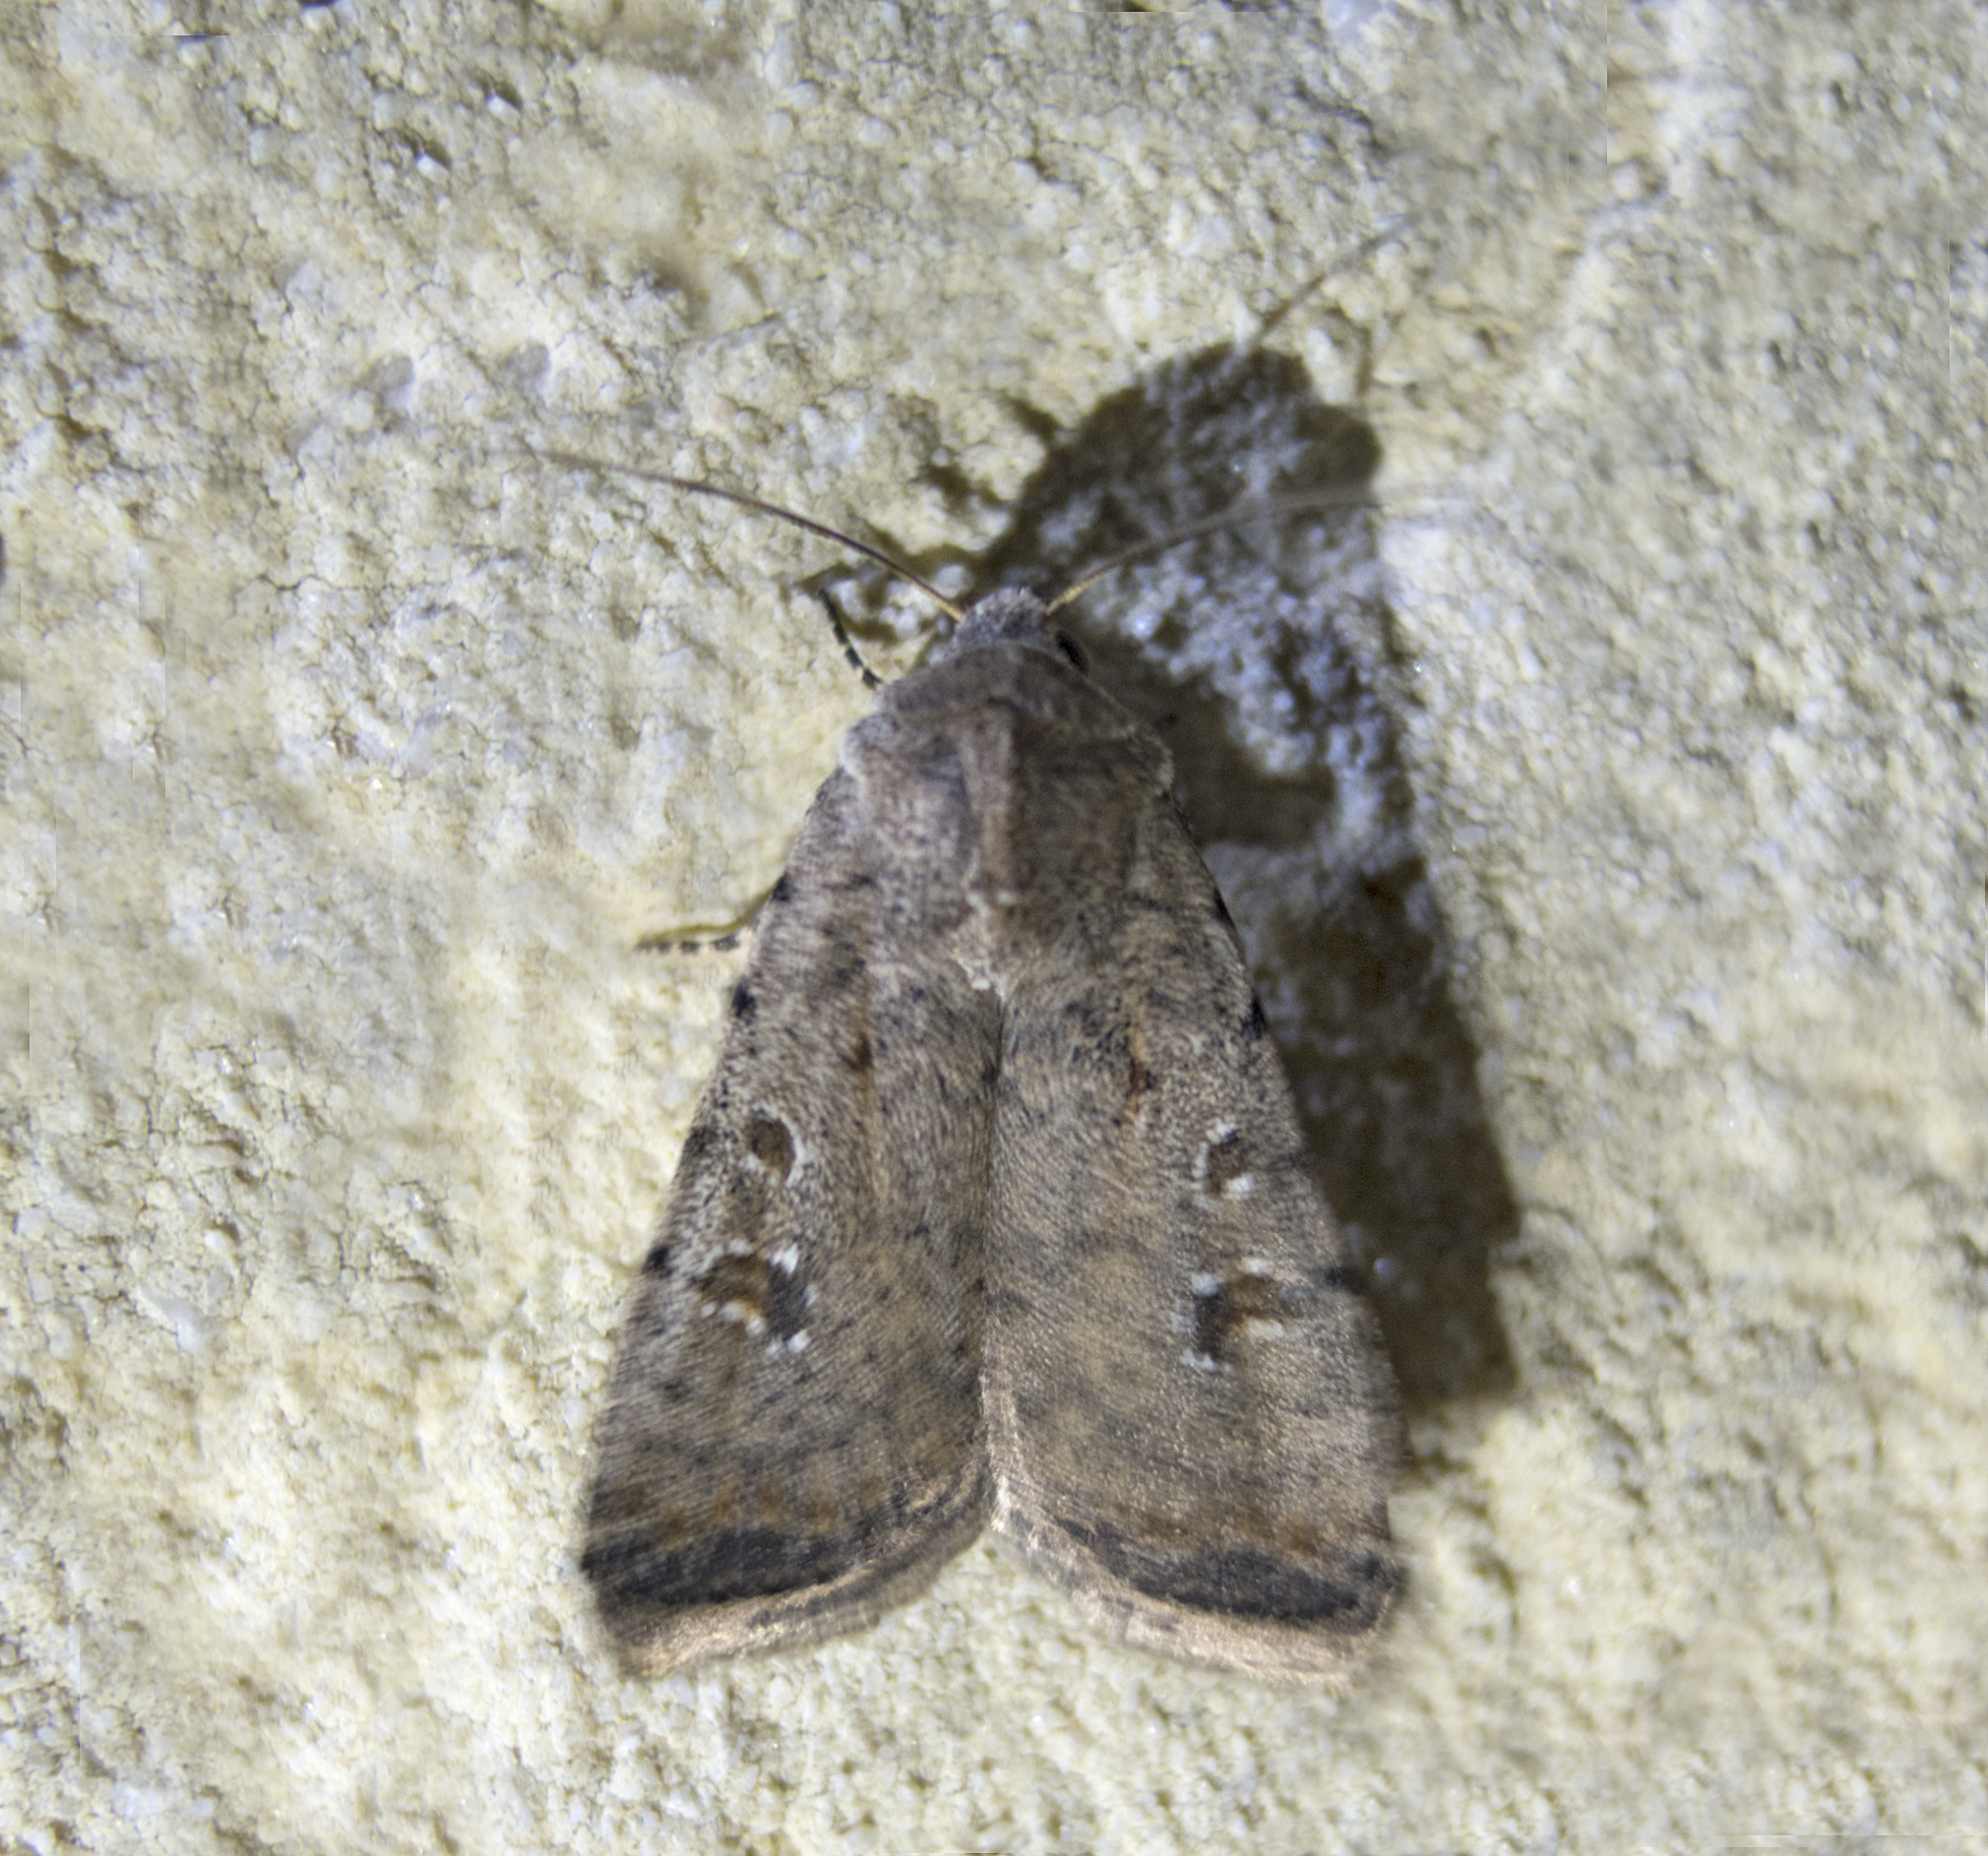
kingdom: Animalia
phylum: Arthropoda
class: Insecta
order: Lepidoptera
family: Noctuidae
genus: Caradrina
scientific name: Caradrina clavipalpis
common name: Pale mottled willow
